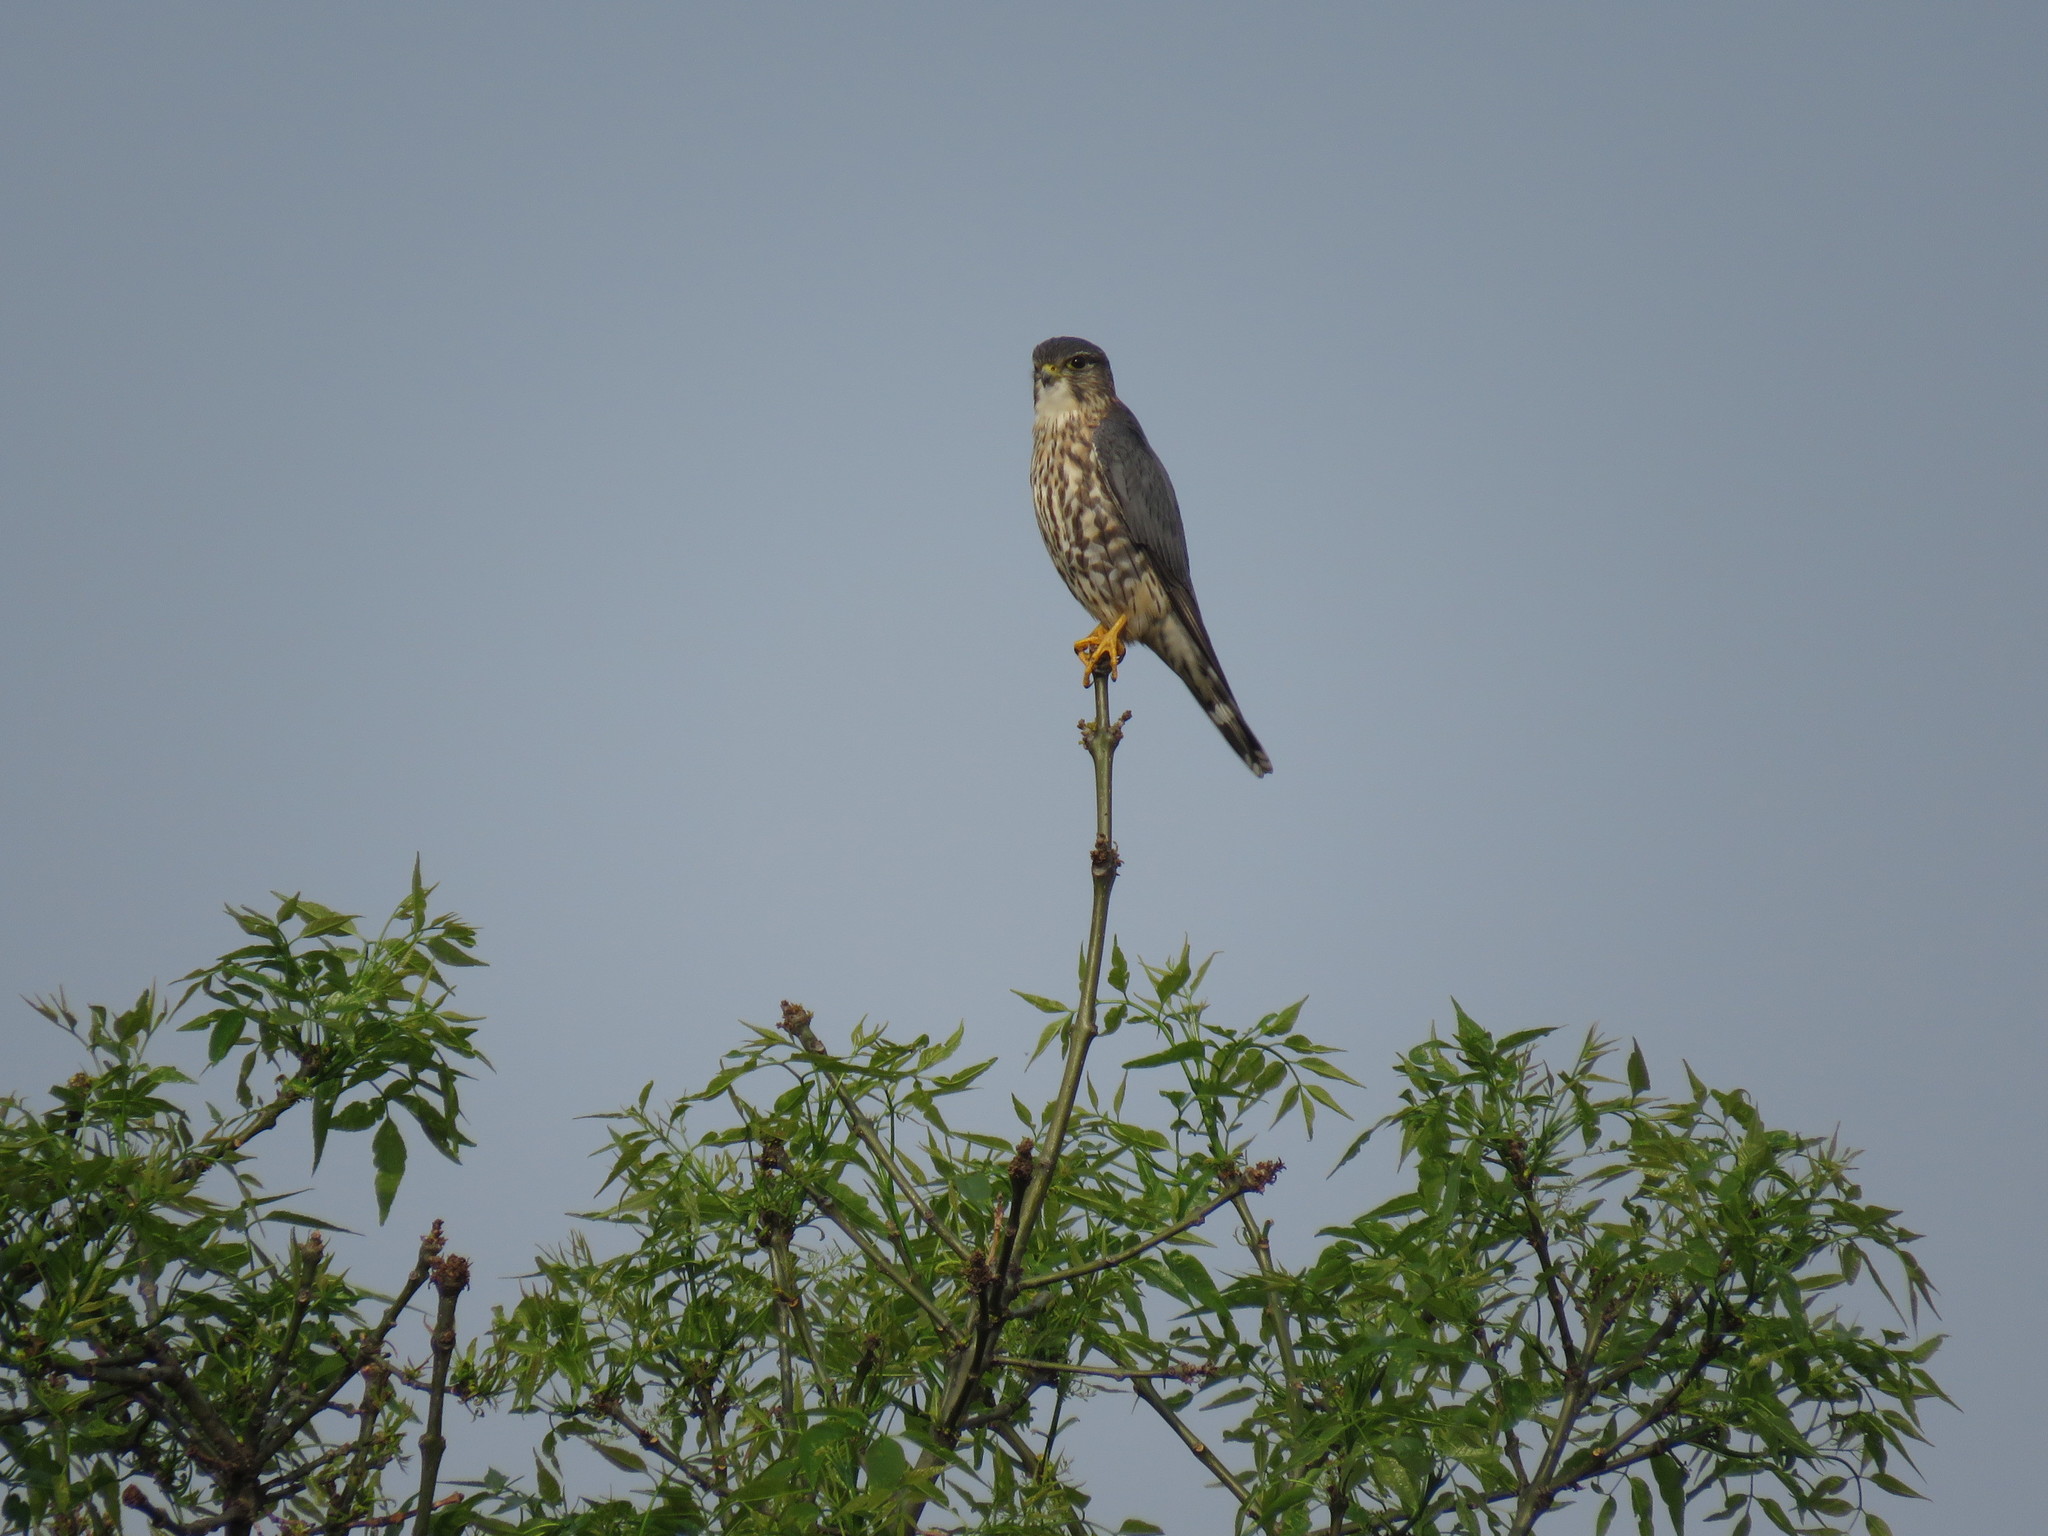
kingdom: Animalia
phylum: Chordata
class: Aves
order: Falconiformes
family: Falconidae
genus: Falco
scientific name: Falco columbarius
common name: Merlin
